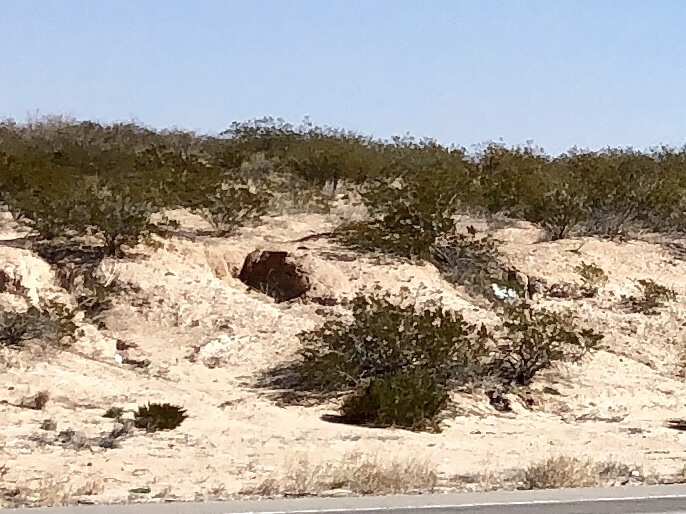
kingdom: Plantae
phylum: Tracheophyta
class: Magnoliopsida
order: Zygophyllales
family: Zygophyllaceae
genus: Larrea
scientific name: Larrea tridentata
